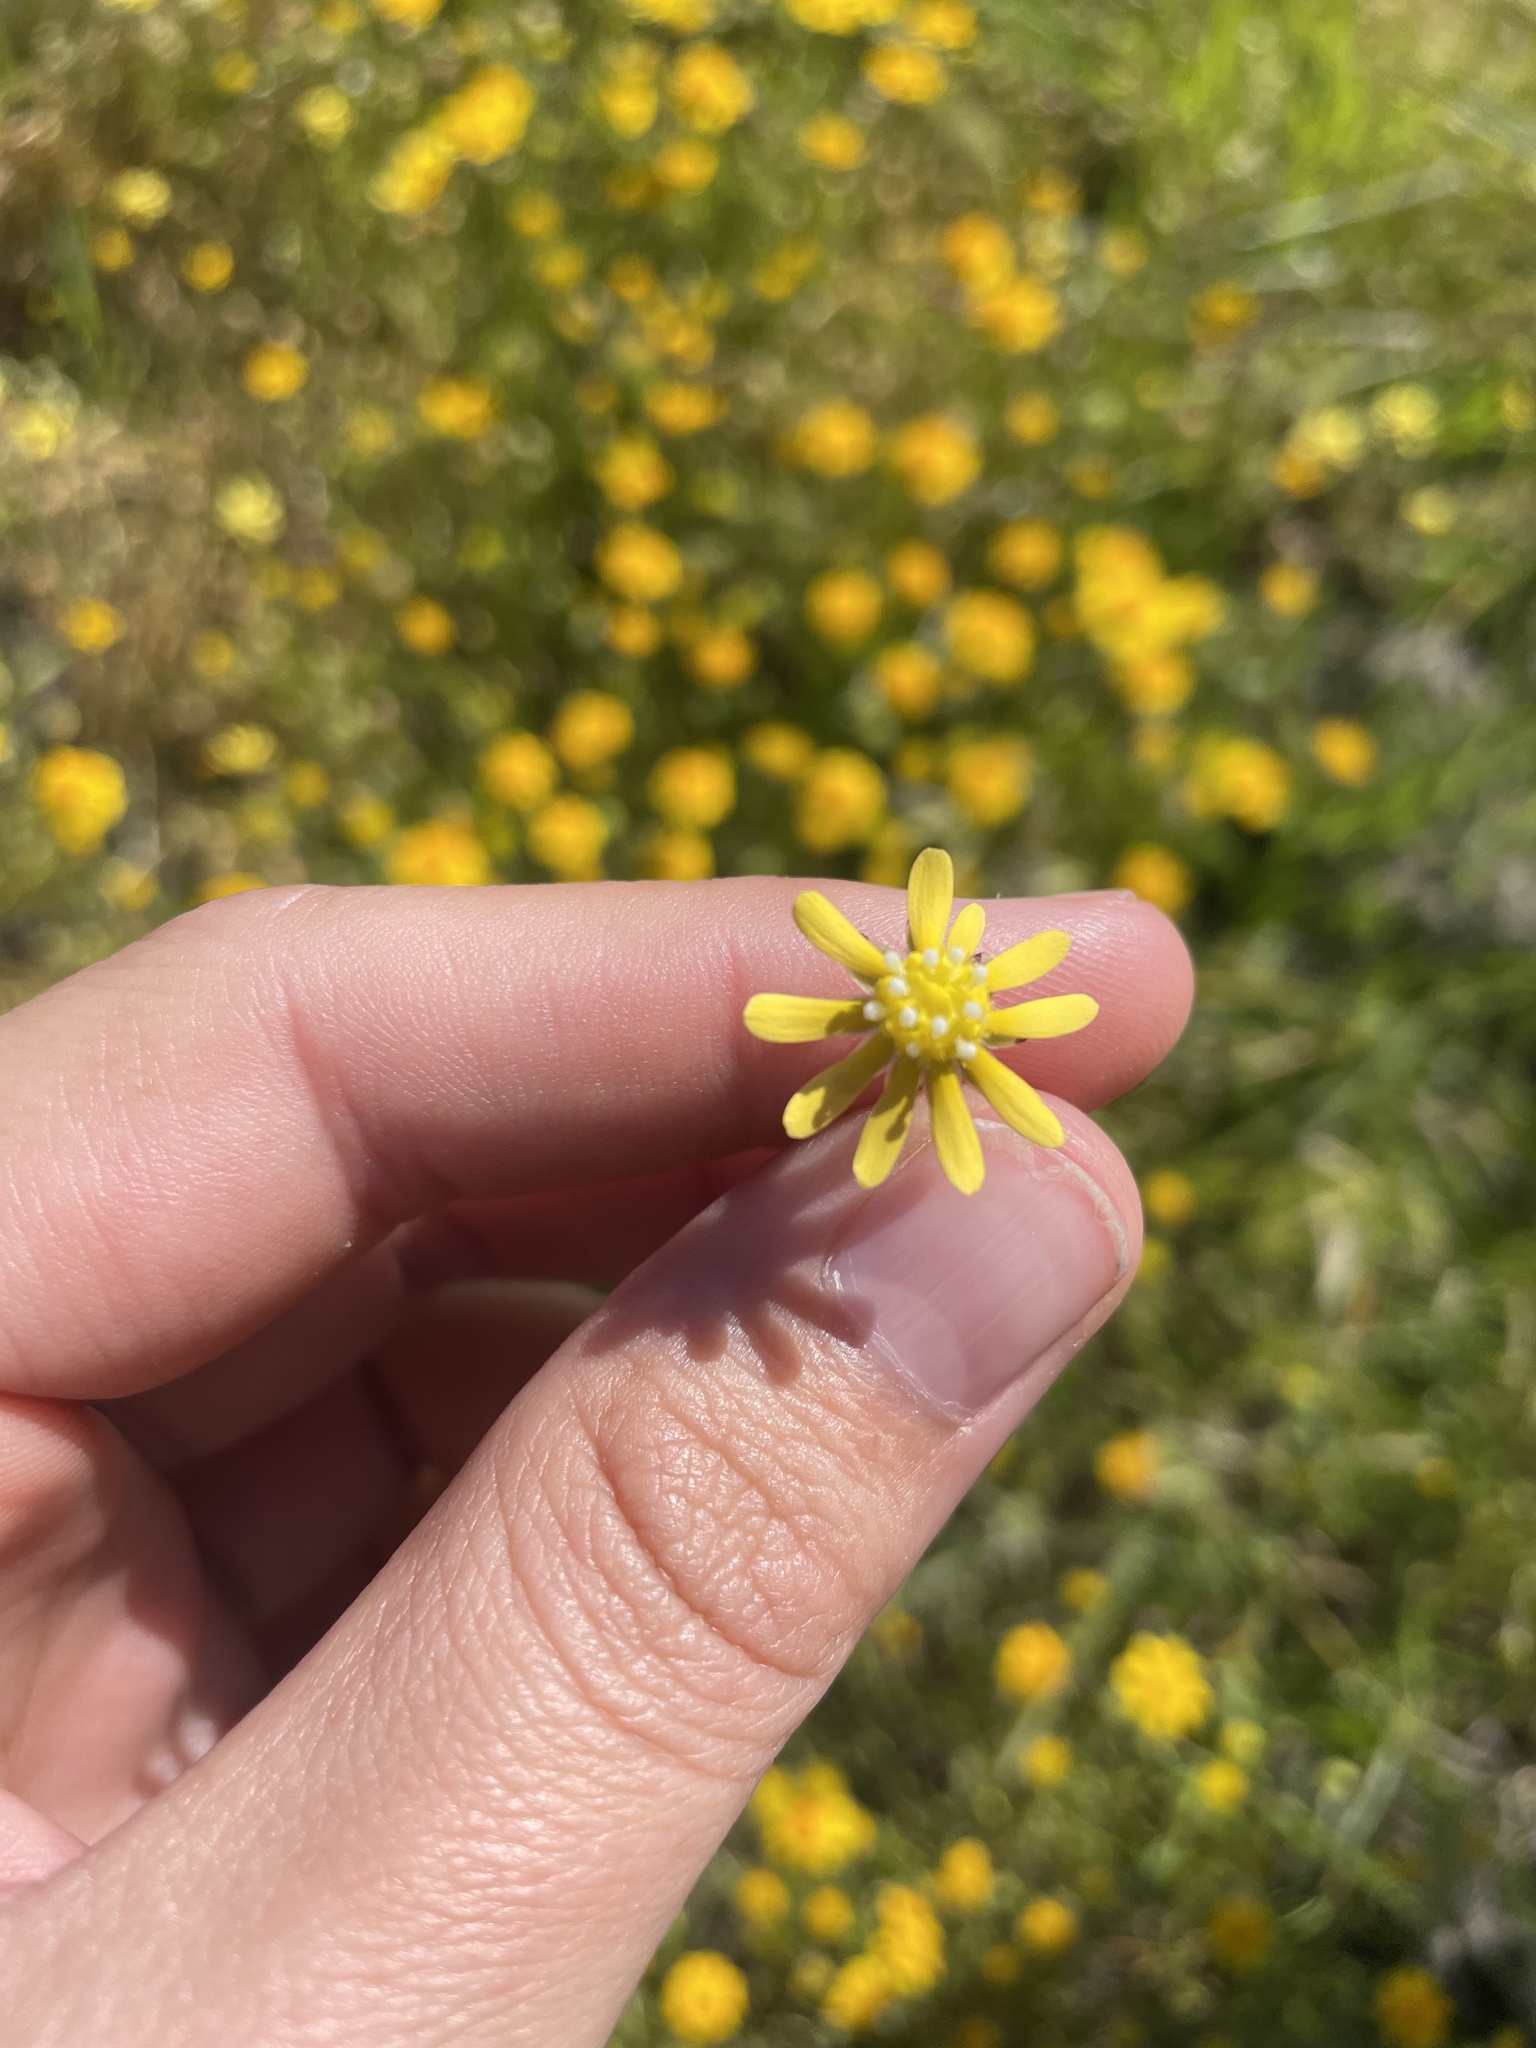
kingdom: Plantae
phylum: Tracheophyta
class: Magnoliopsida
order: Asterales
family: Asteraceae
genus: Blennosperma
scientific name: Blennosperma nanum
